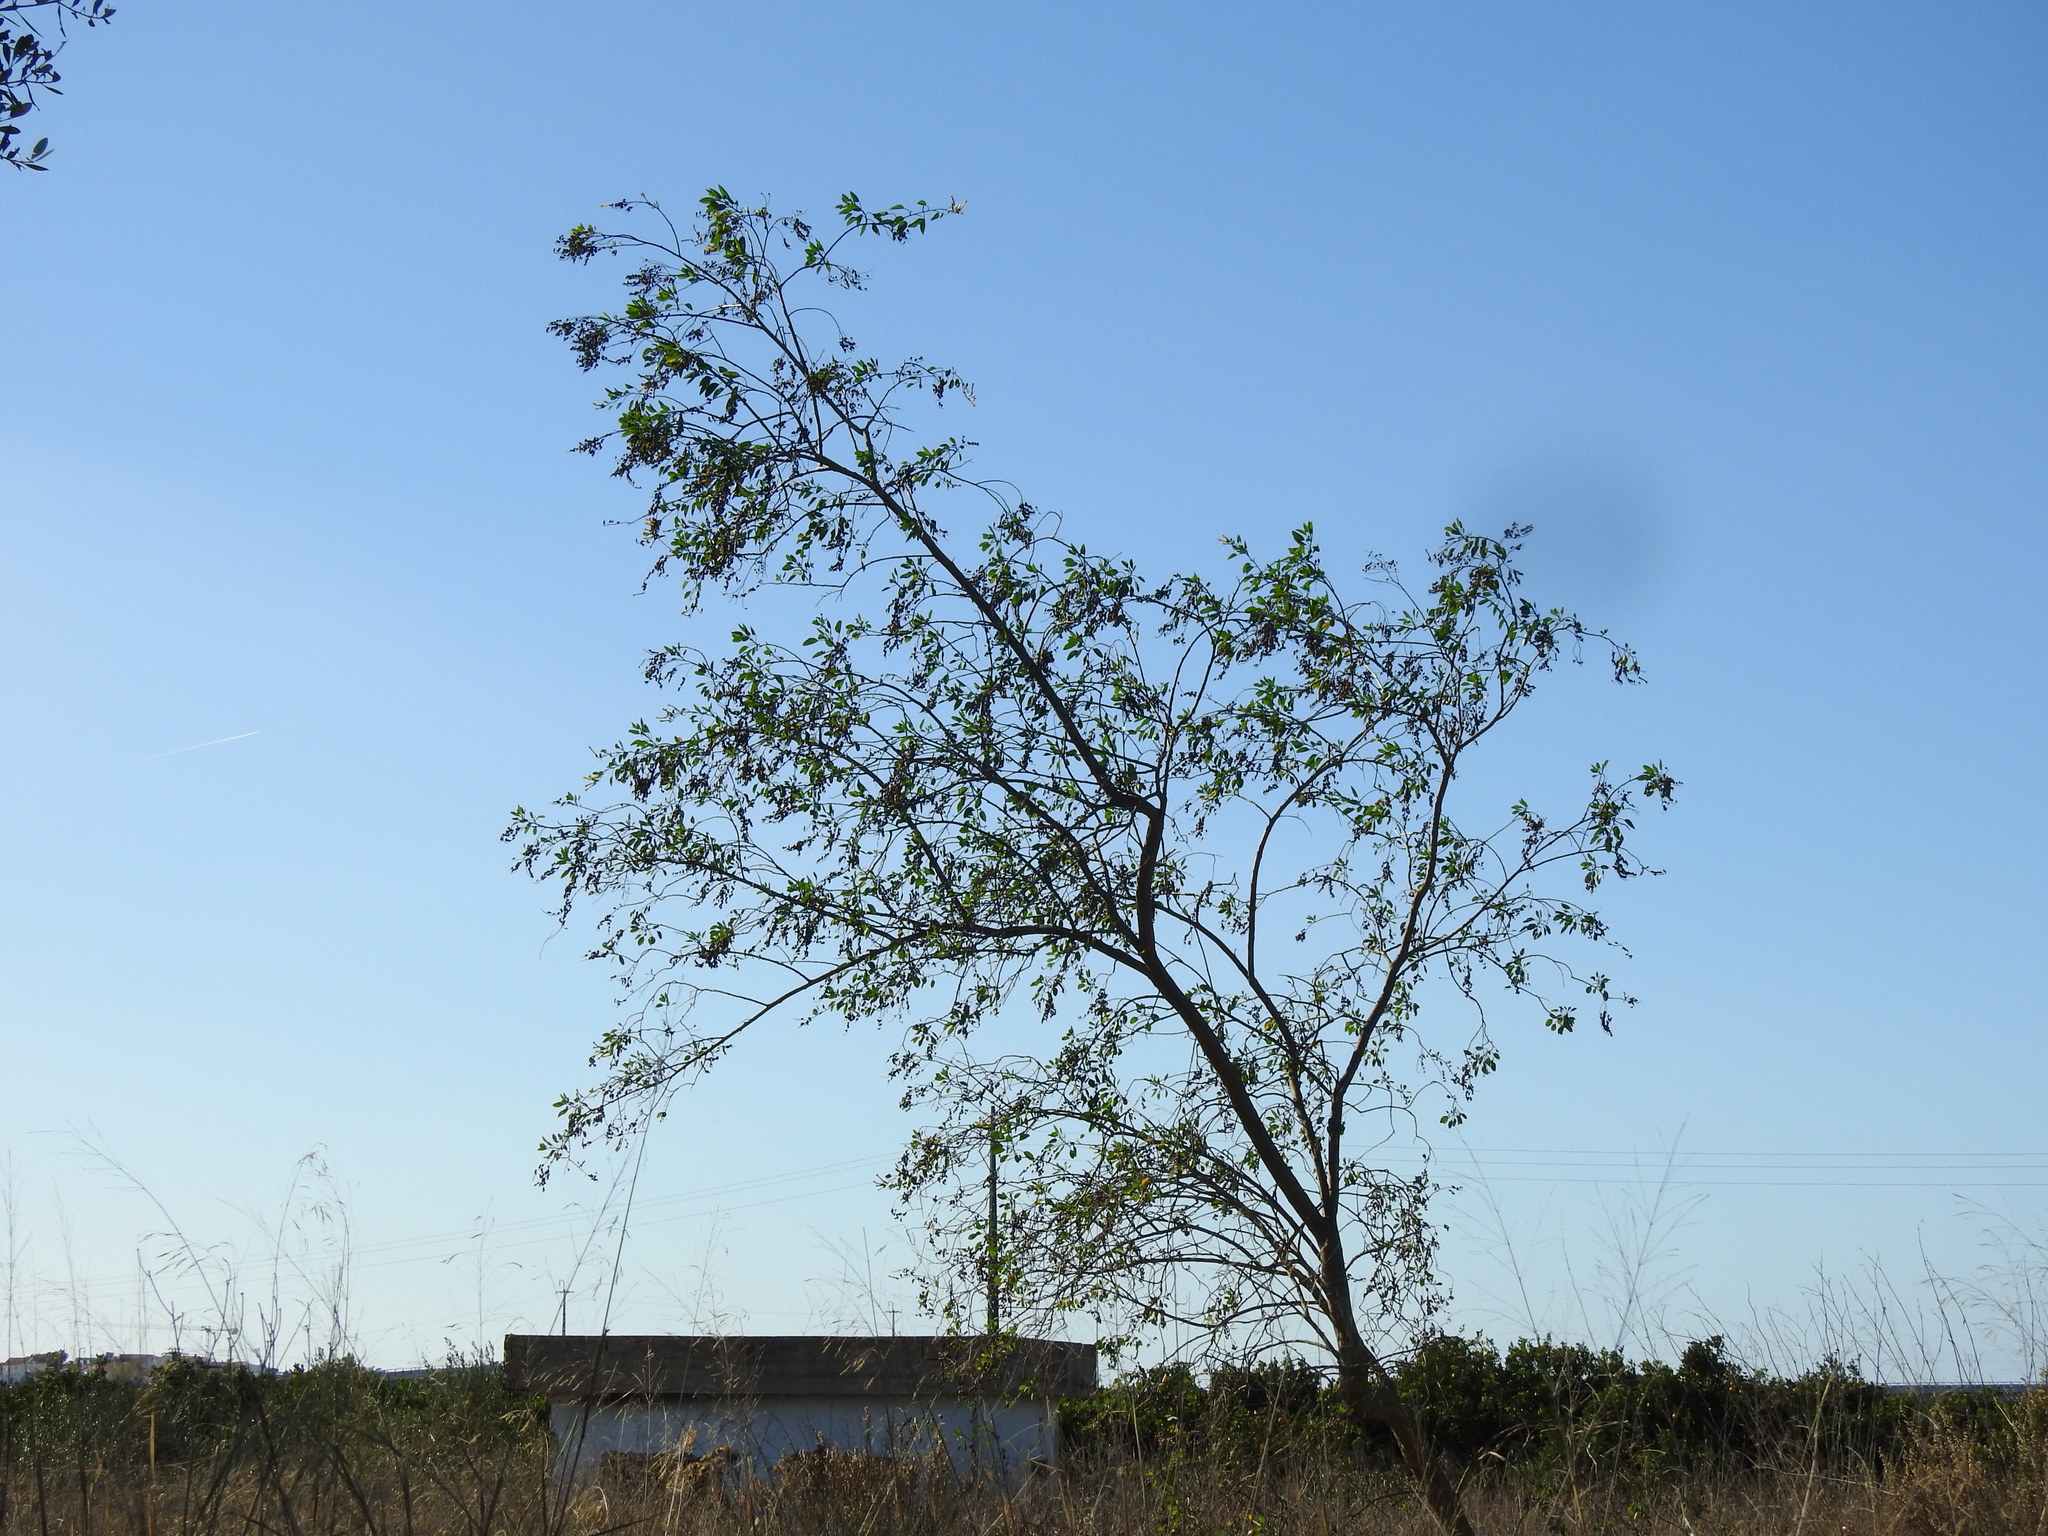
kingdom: Plantae
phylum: Tracheophyta
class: Magnoliopsida
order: Solanales
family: Solanaceae
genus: Nicotiana
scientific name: Nicotiana glauca
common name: Tree tobacco
